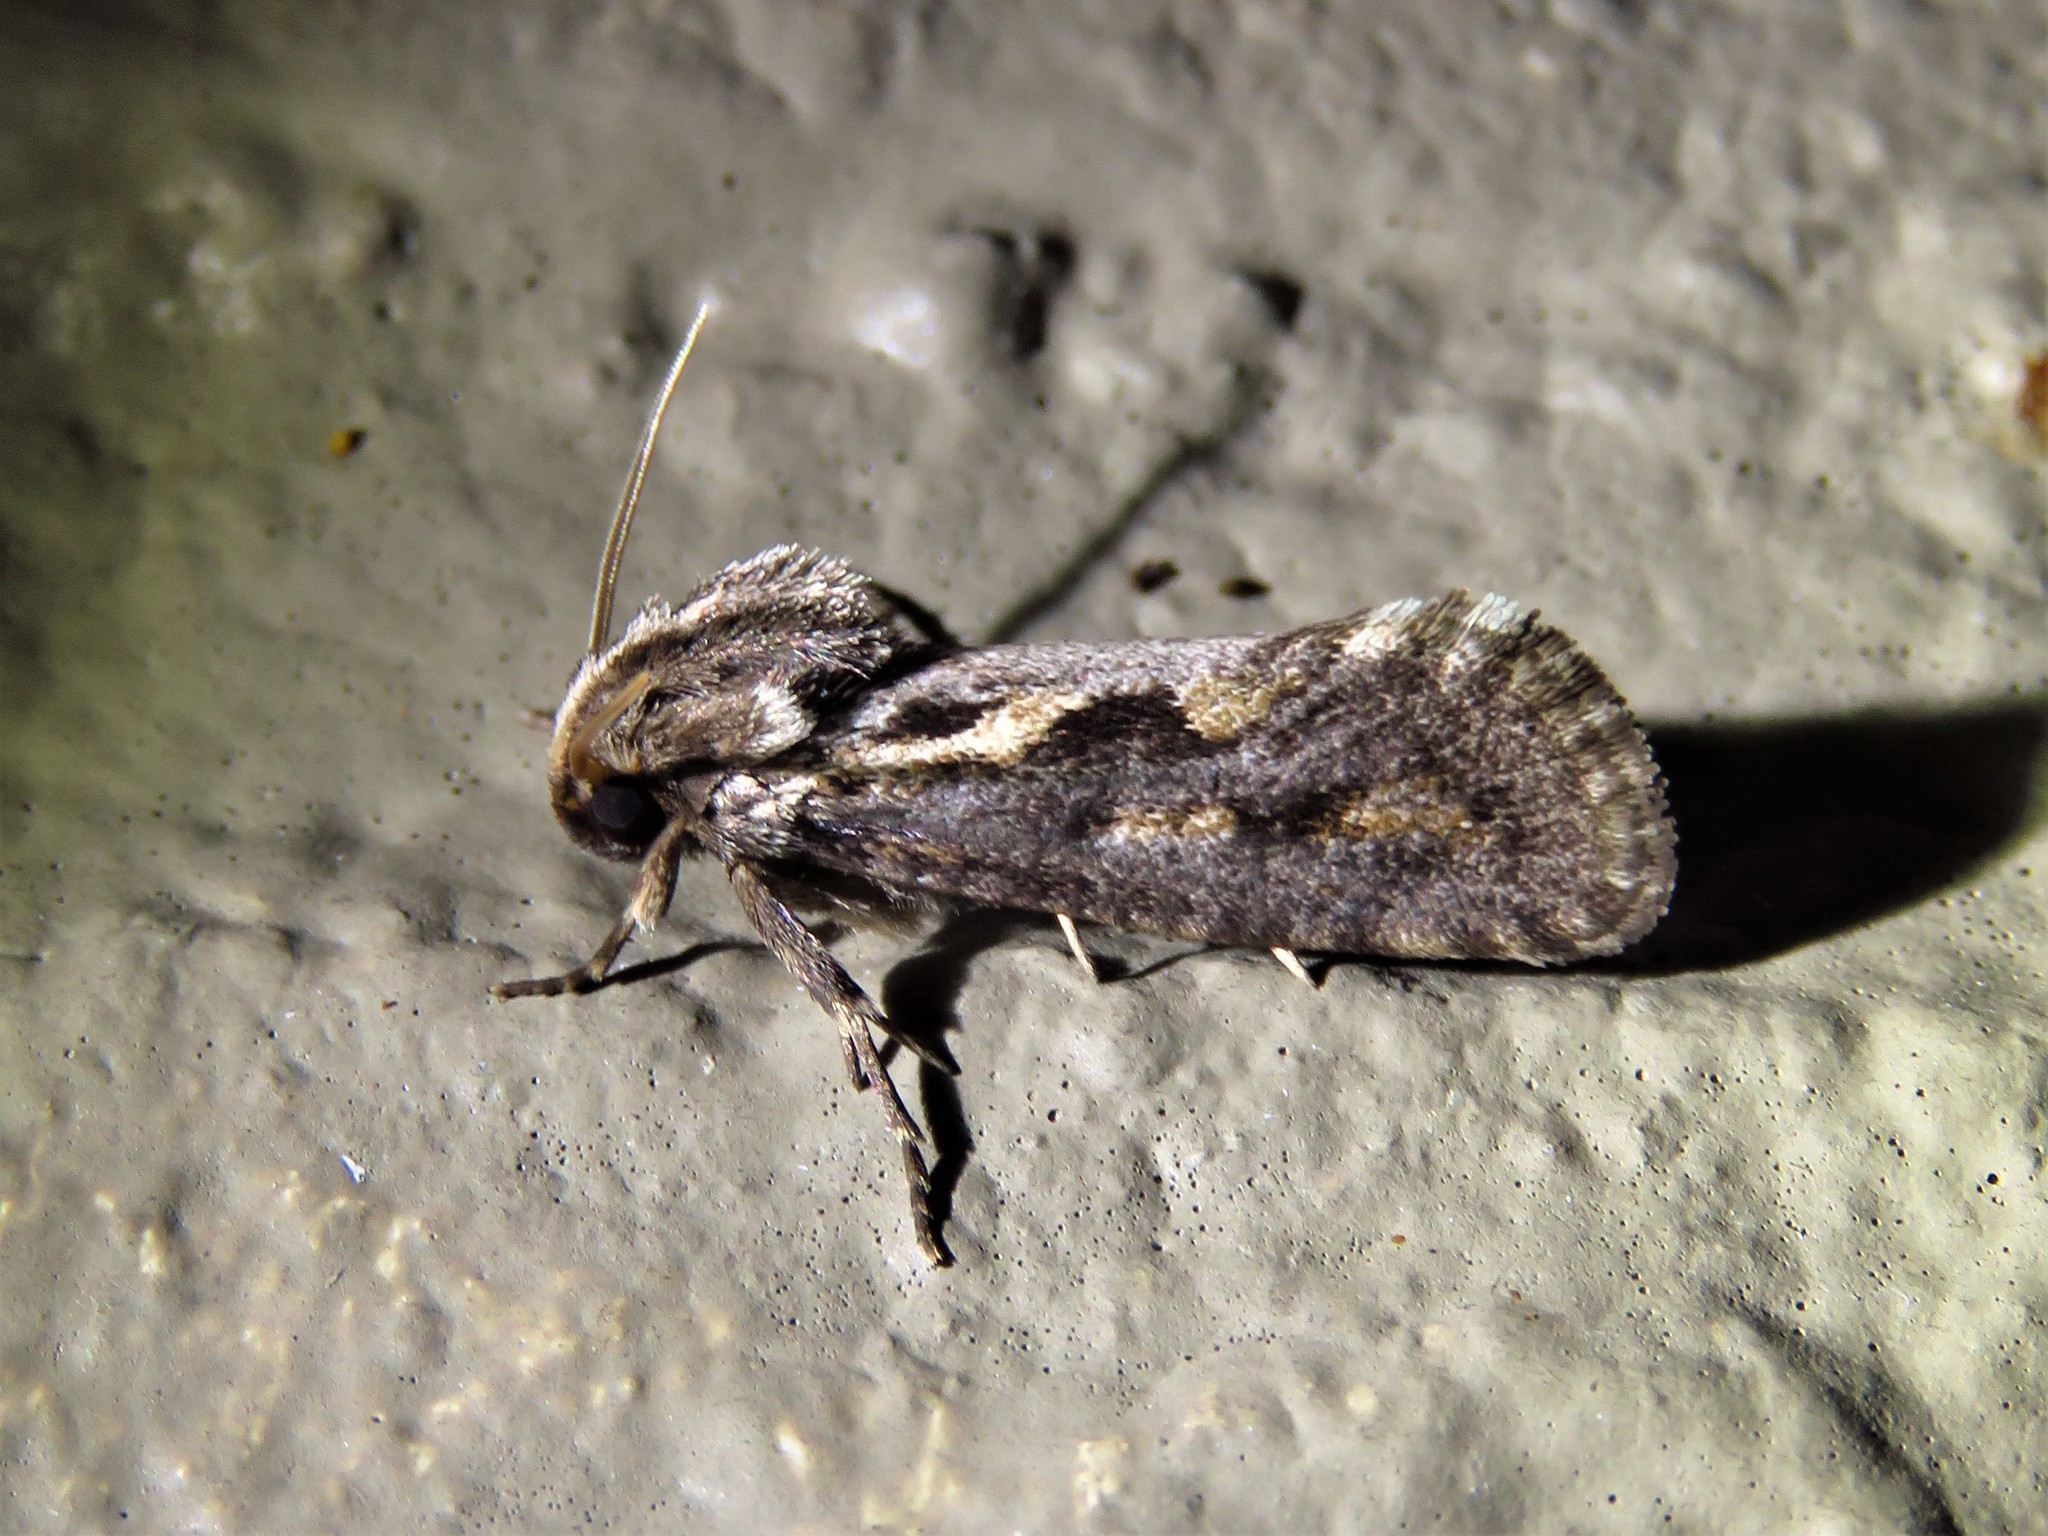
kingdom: Animalia
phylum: Arthropoda
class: Insecta
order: Lepidoptera
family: Tineidae
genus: Acrolophus
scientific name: Acrolophus popeanella
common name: Clemens' grass tubeworm moth
